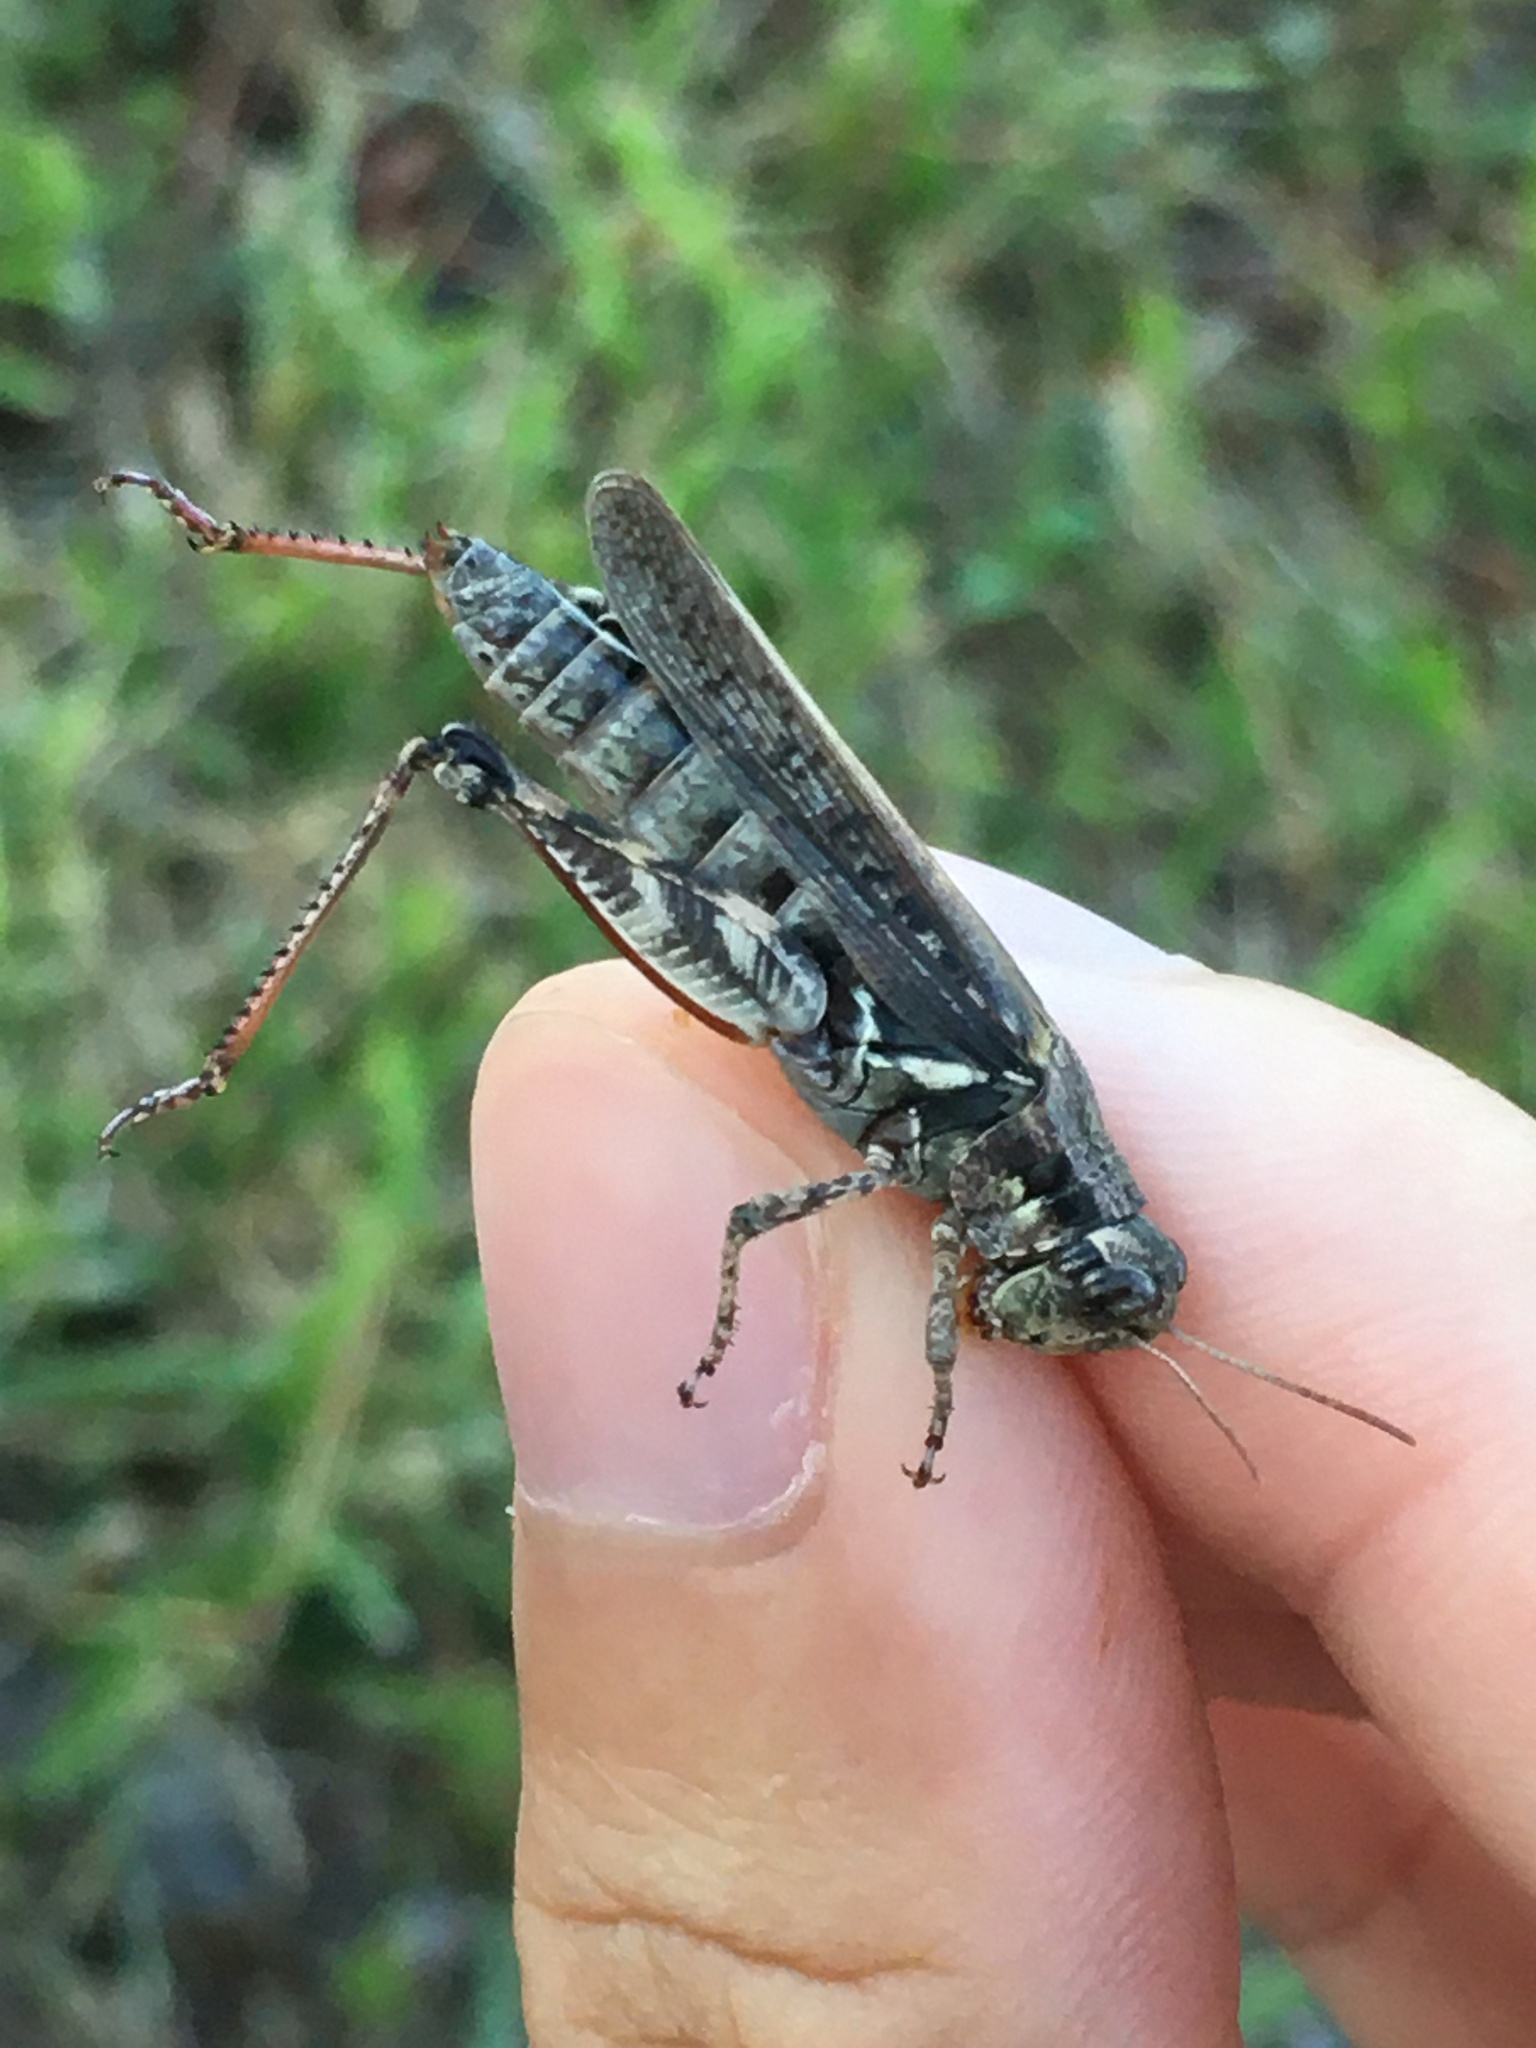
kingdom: Animalia
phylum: Arthropoda
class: Insecta
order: Orthoptera
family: Acrididae
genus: Melanoplus
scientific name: Melanoplus punctulatus
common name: Pine-tree spur-throat grasshopper
